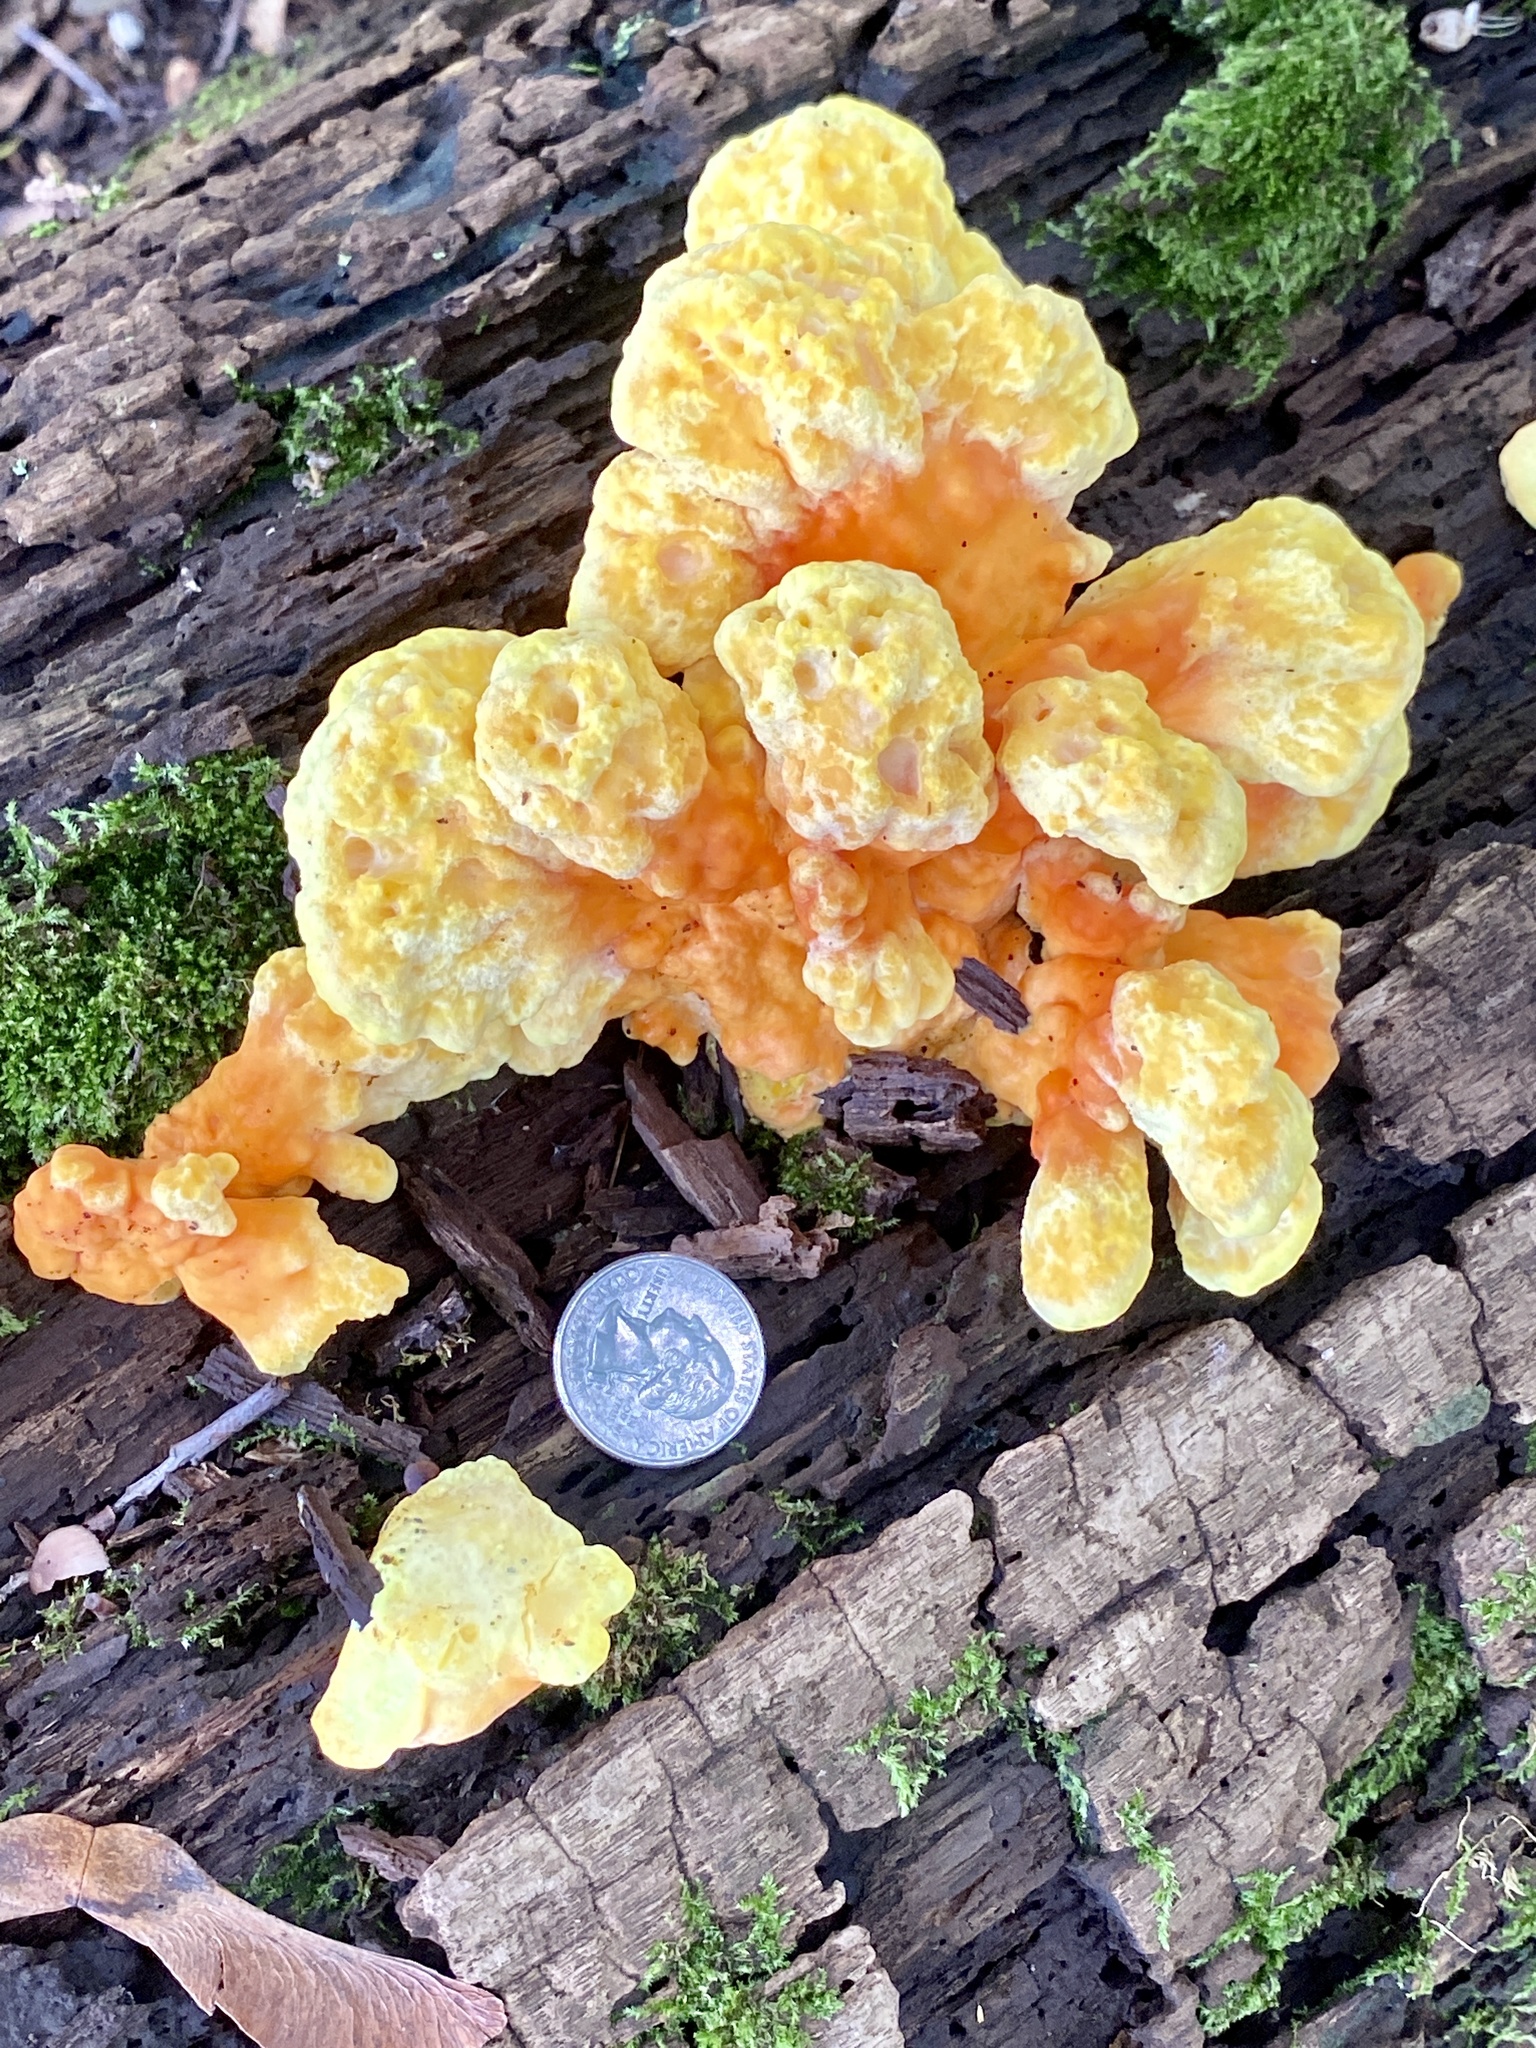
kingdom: Fungi
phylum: Basidiomycota
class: Agaricomycetes
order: Polyporales
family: Laetiporaceae
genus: Laetiporus
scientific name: Laetiporus sulphureus
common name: Chicken of the woods
